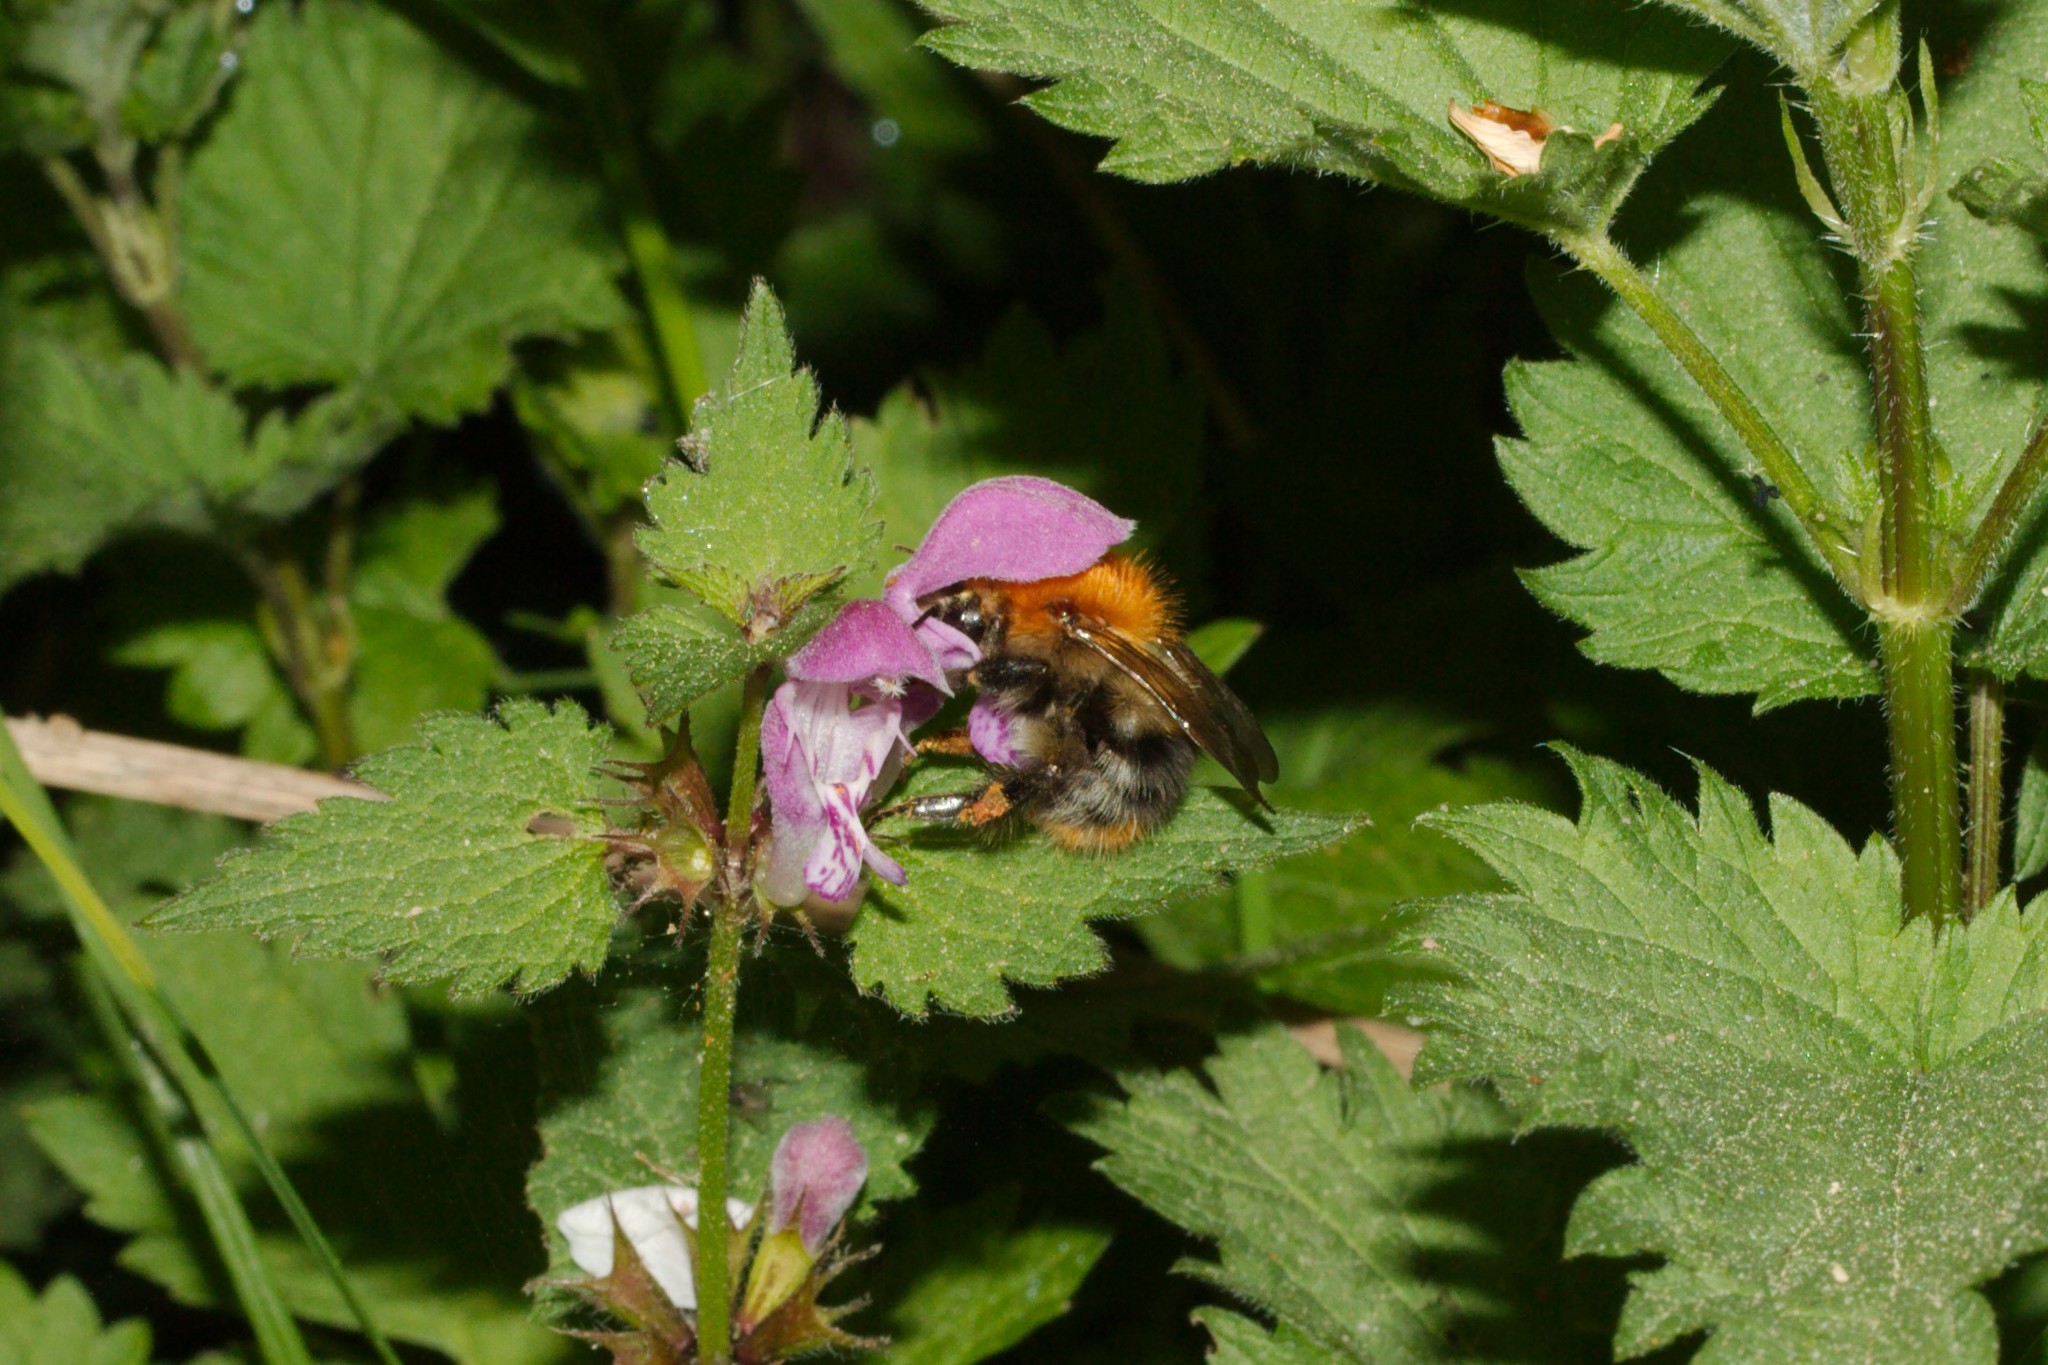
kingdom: Animalia
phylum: Arthropoda
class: Insecta
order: Hymenoptera
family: Apidae
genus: Bombus
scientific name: Bombus pascuorum
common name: Common carder bee
